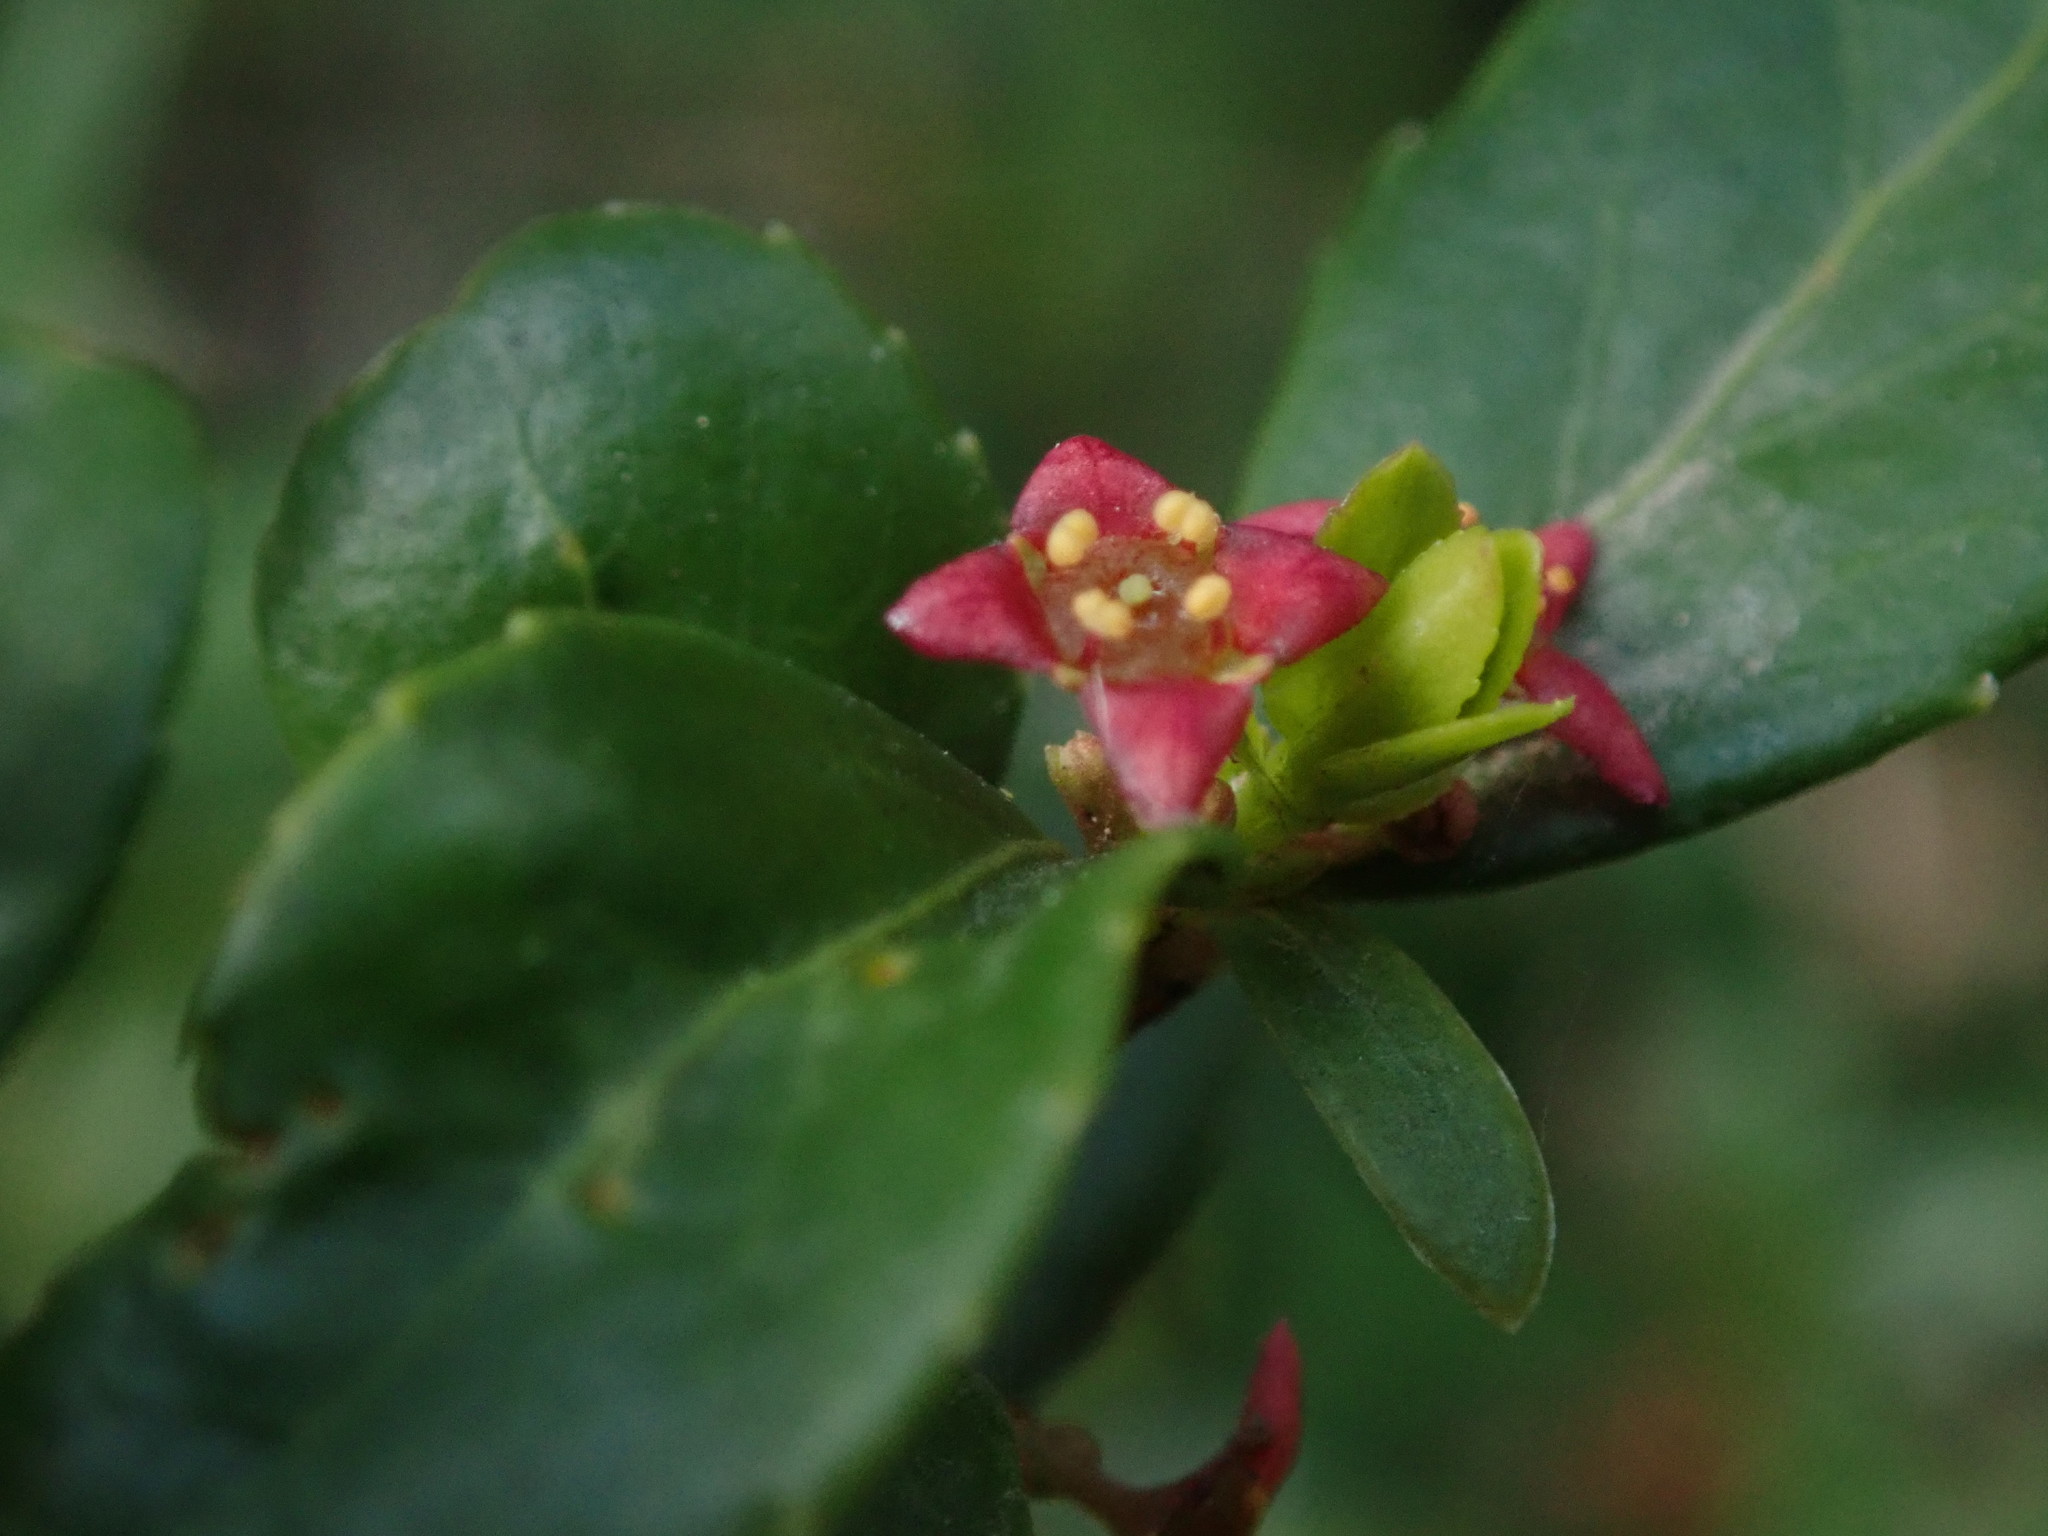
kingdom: Plantae
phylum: Tracheophyta
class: Magnoliopsida
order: Celastrales
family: Celastraceae
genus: Paxistima
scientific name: Paxistima myrsinites
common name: Mountain-lover
